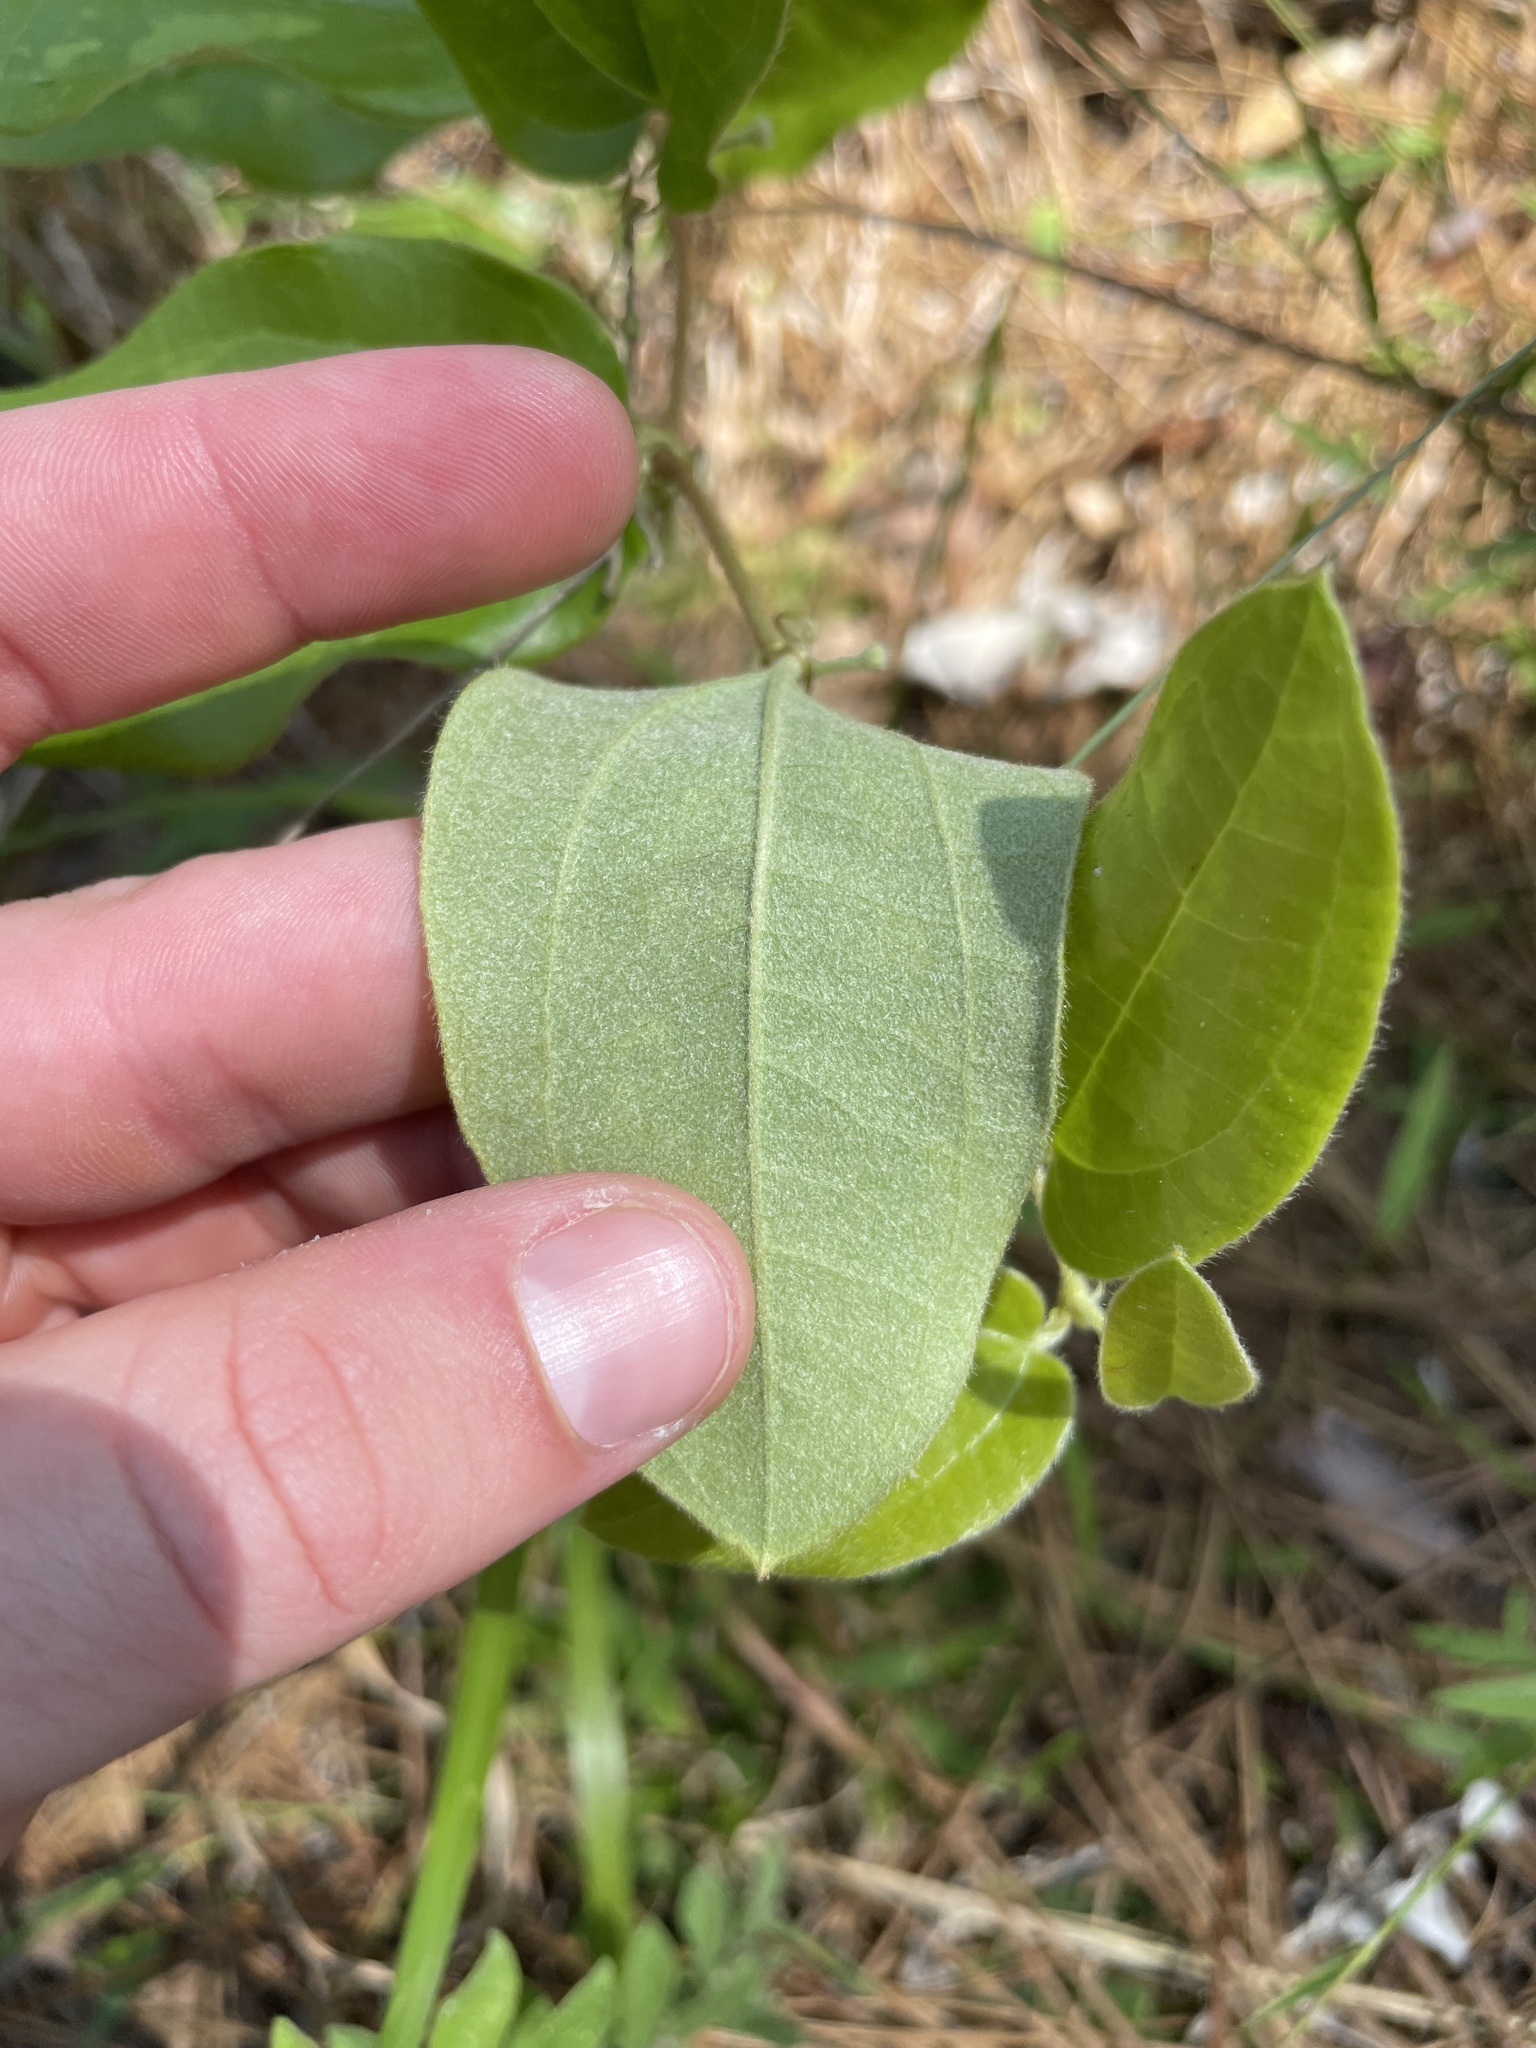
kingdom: Plantae
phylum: Tracheophyta
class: Liliopsida
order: Liliales
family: Smilacaceae
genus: Smilax
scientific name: Smilax pumila
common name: Sarsaparilla-vine
